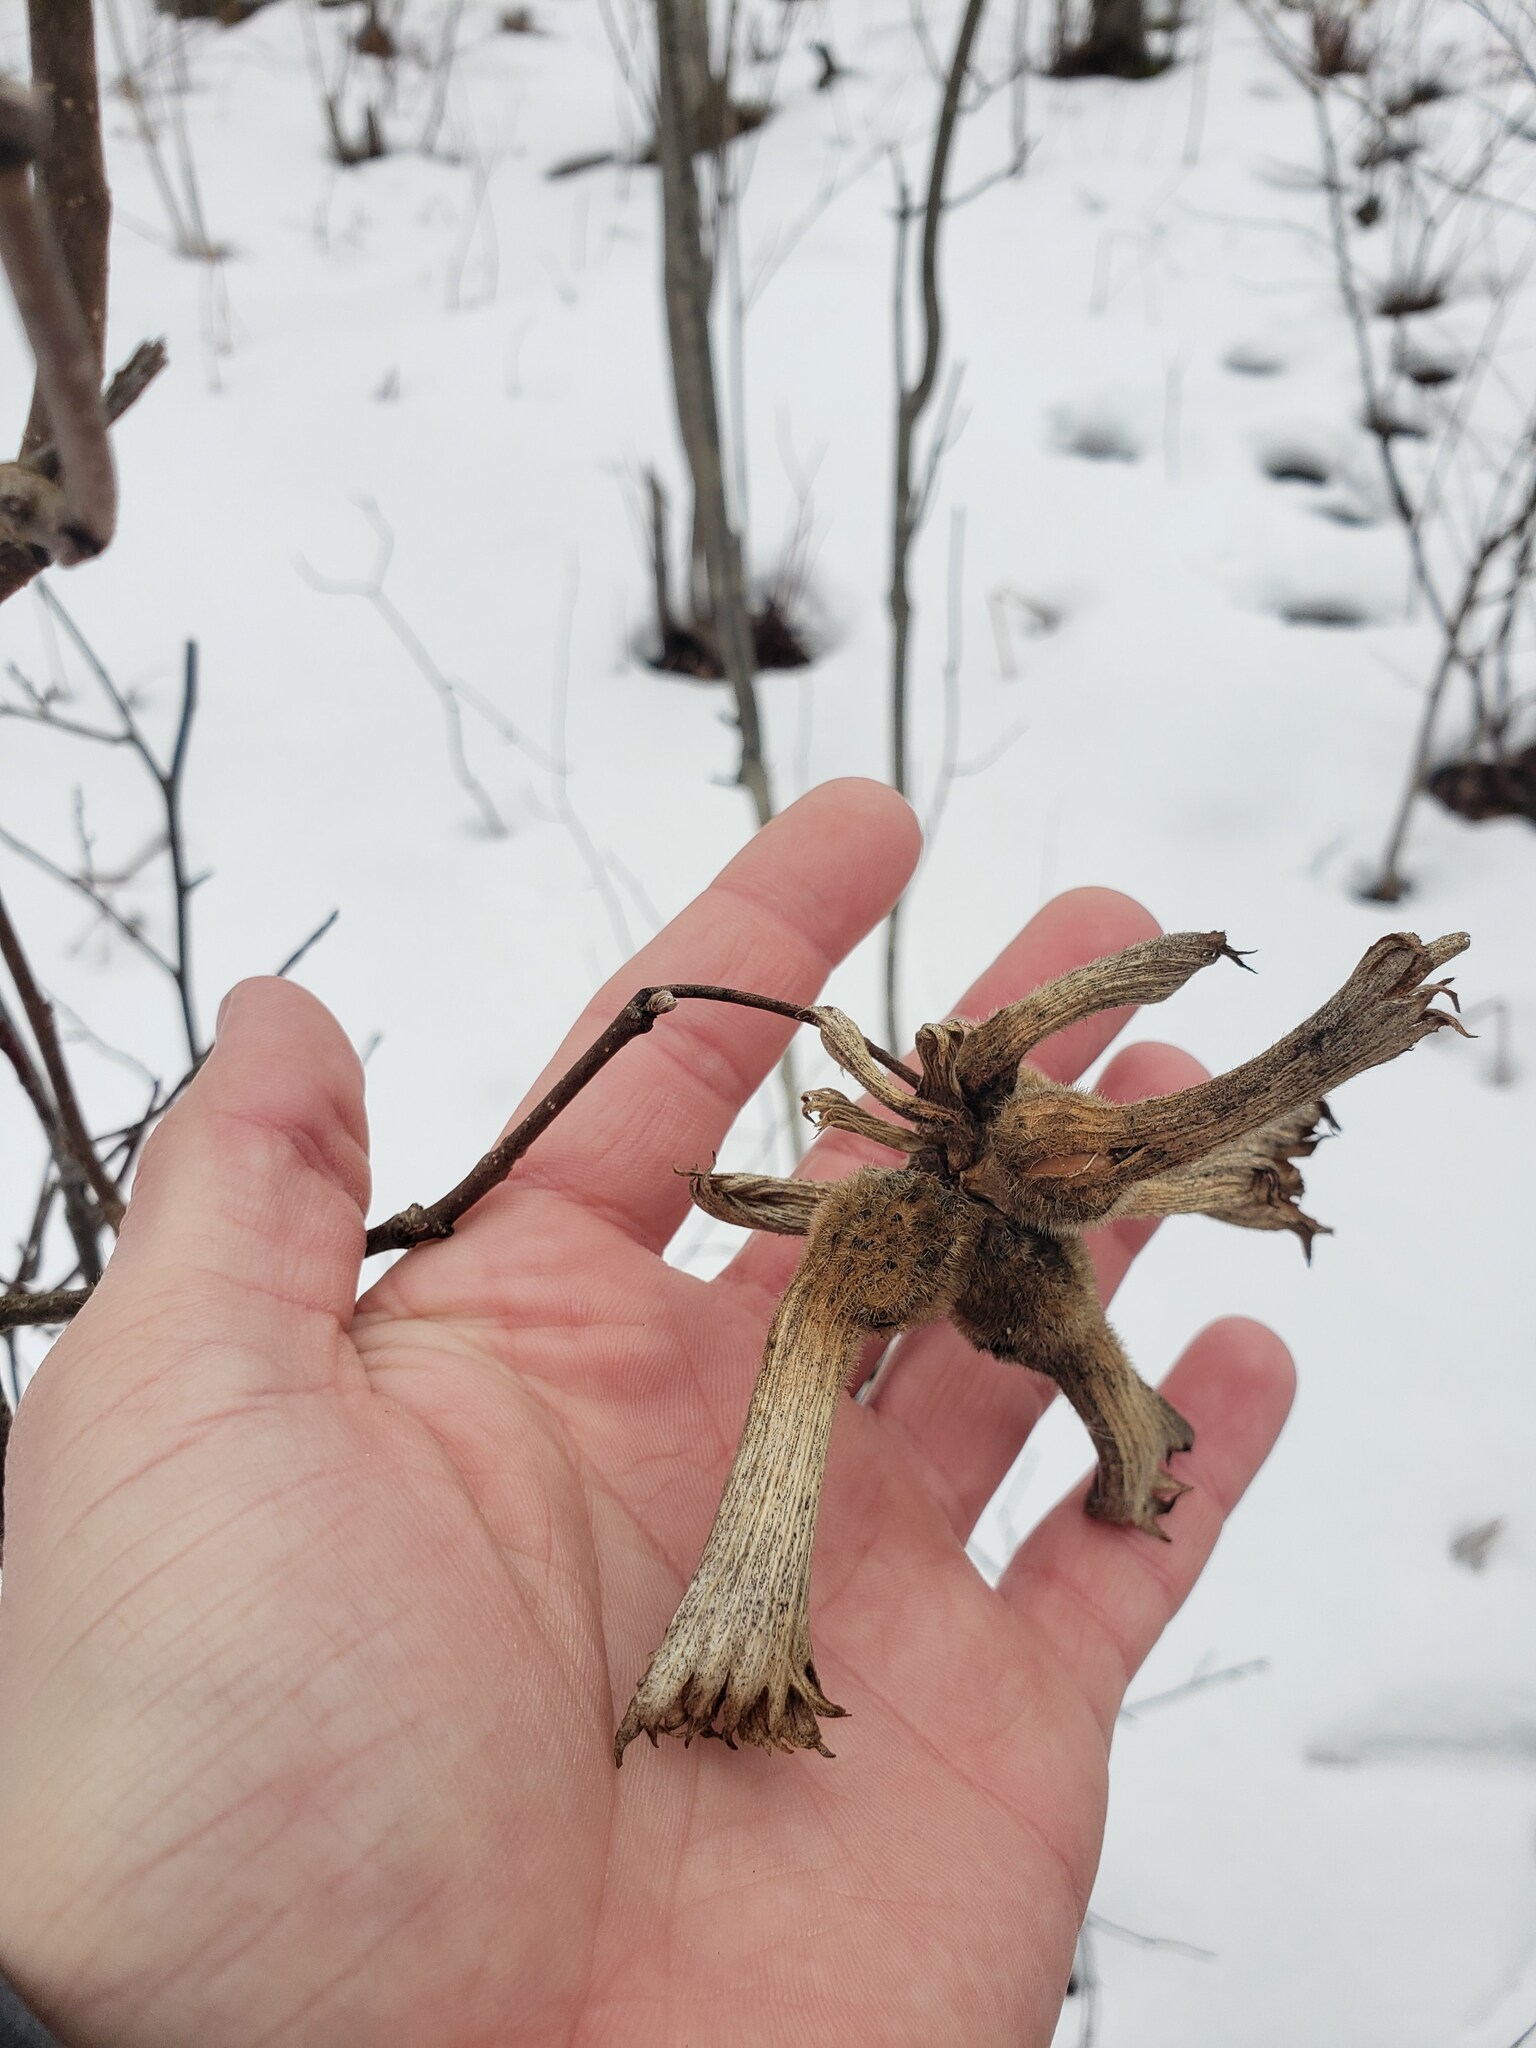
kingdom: Plantae
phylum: Tracheophyta
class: Magnoliopsida
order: Fagales
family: Betulaceae
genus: Corylus
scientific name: Corylus cornuta
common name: Beaked hazel
